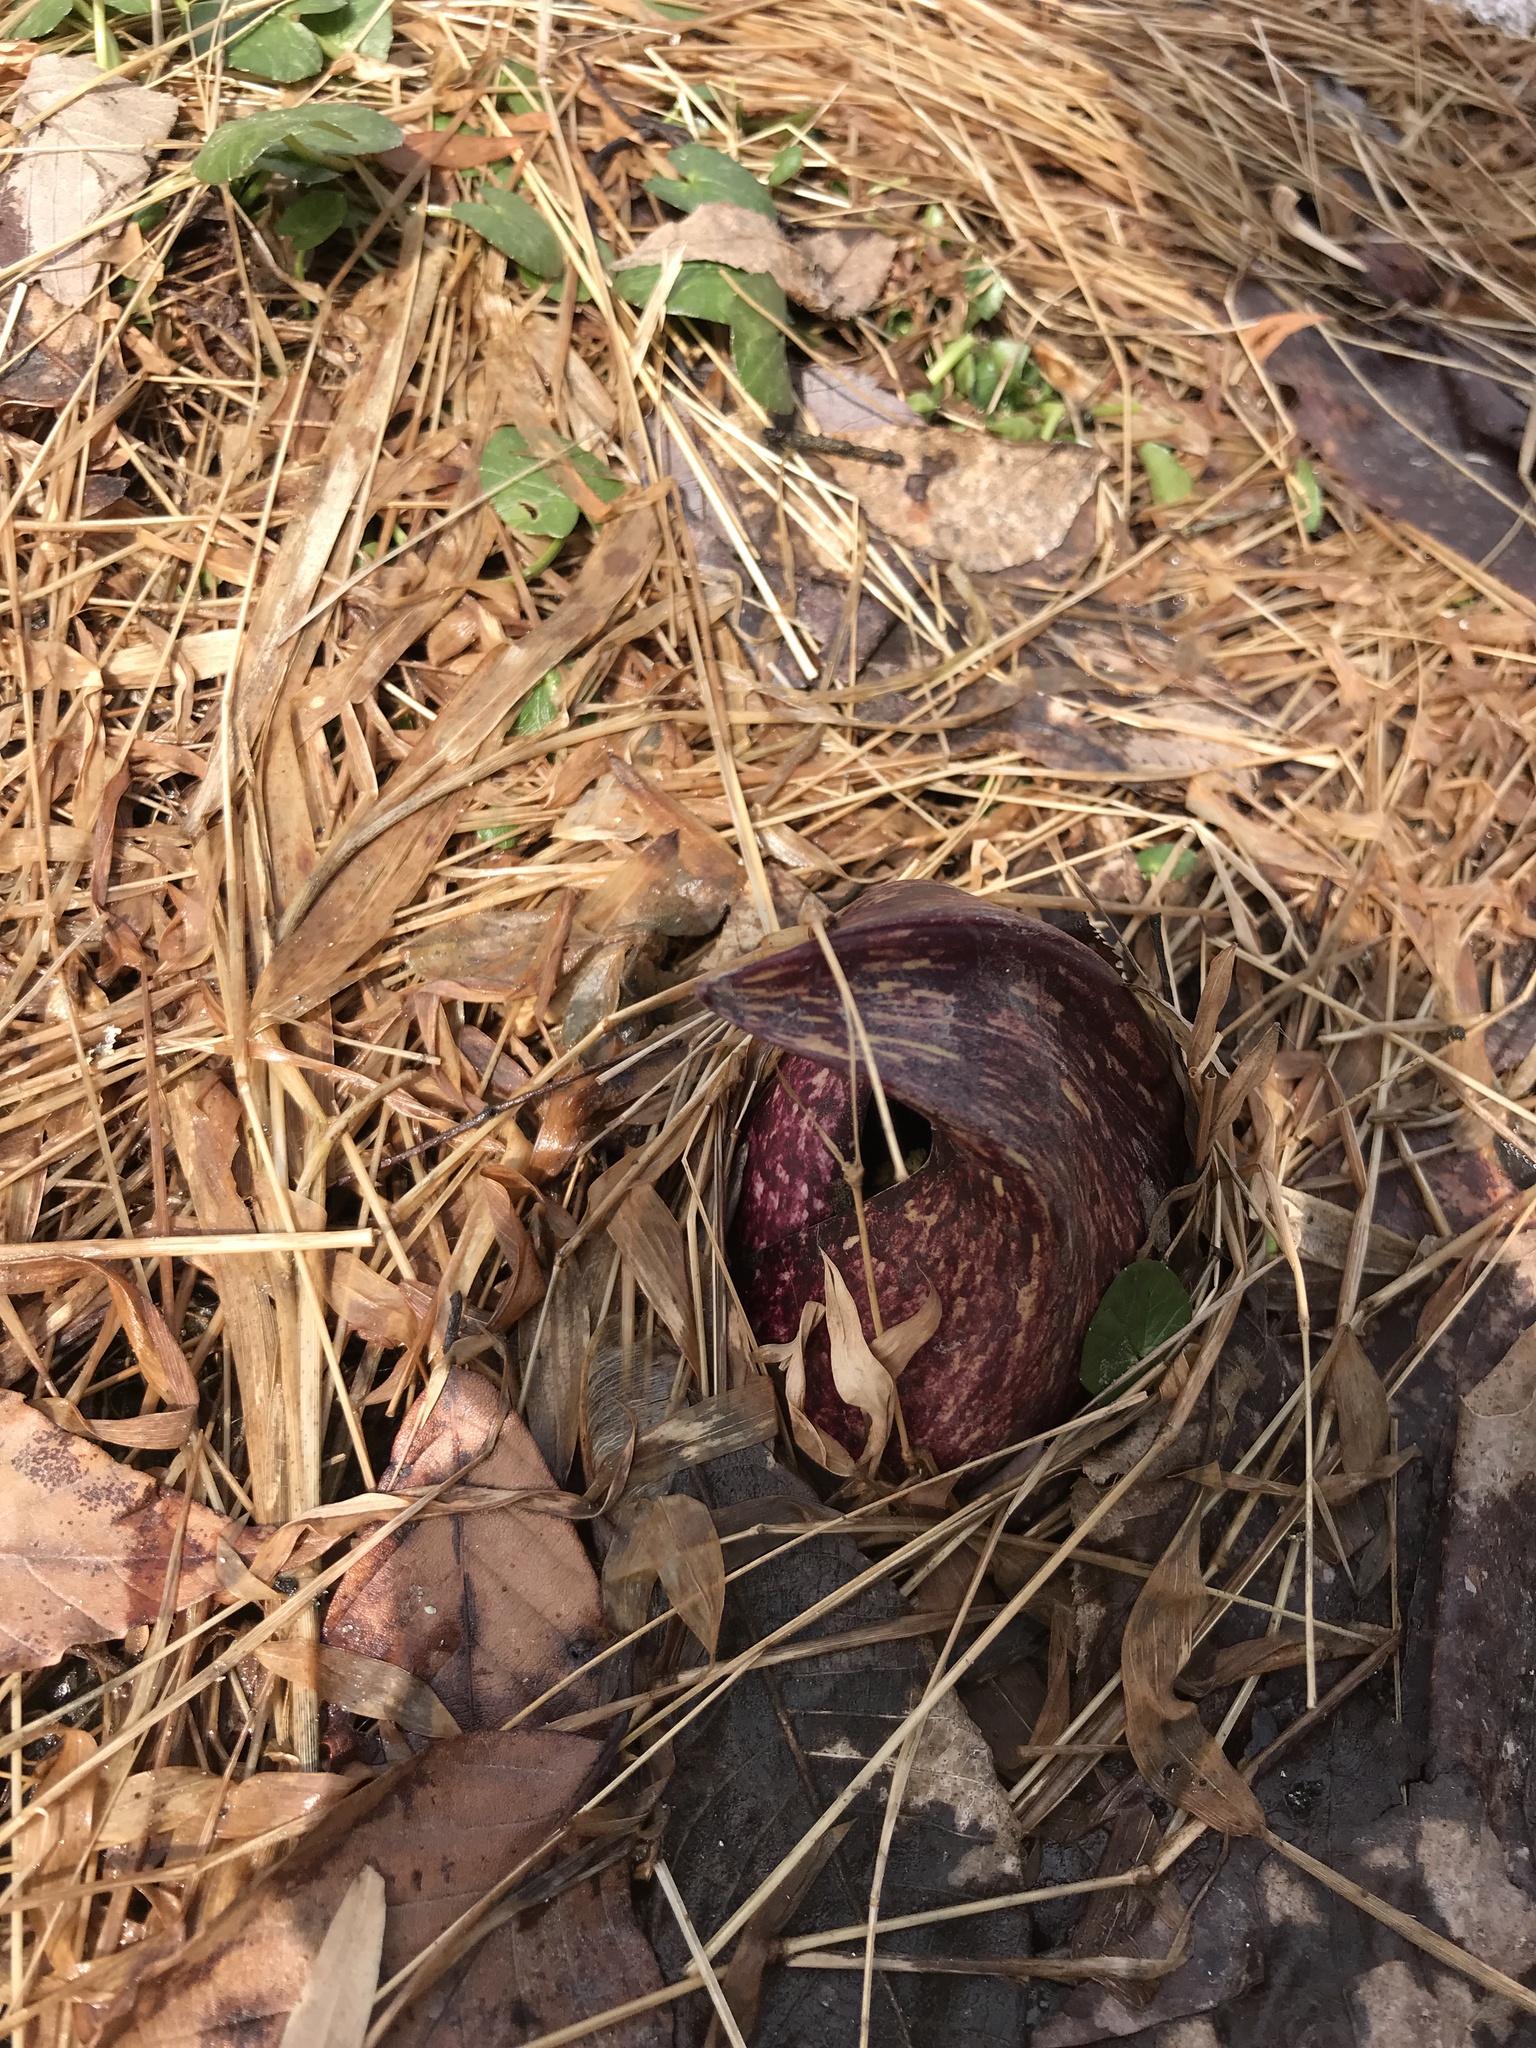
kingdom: Plantae
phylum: Tracheophyta
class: Liliopsida
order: Alismatales
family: Araceae
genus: Symplocarpus
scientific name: Symplocarpus foetidus
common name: Eastern skunk cabbage
